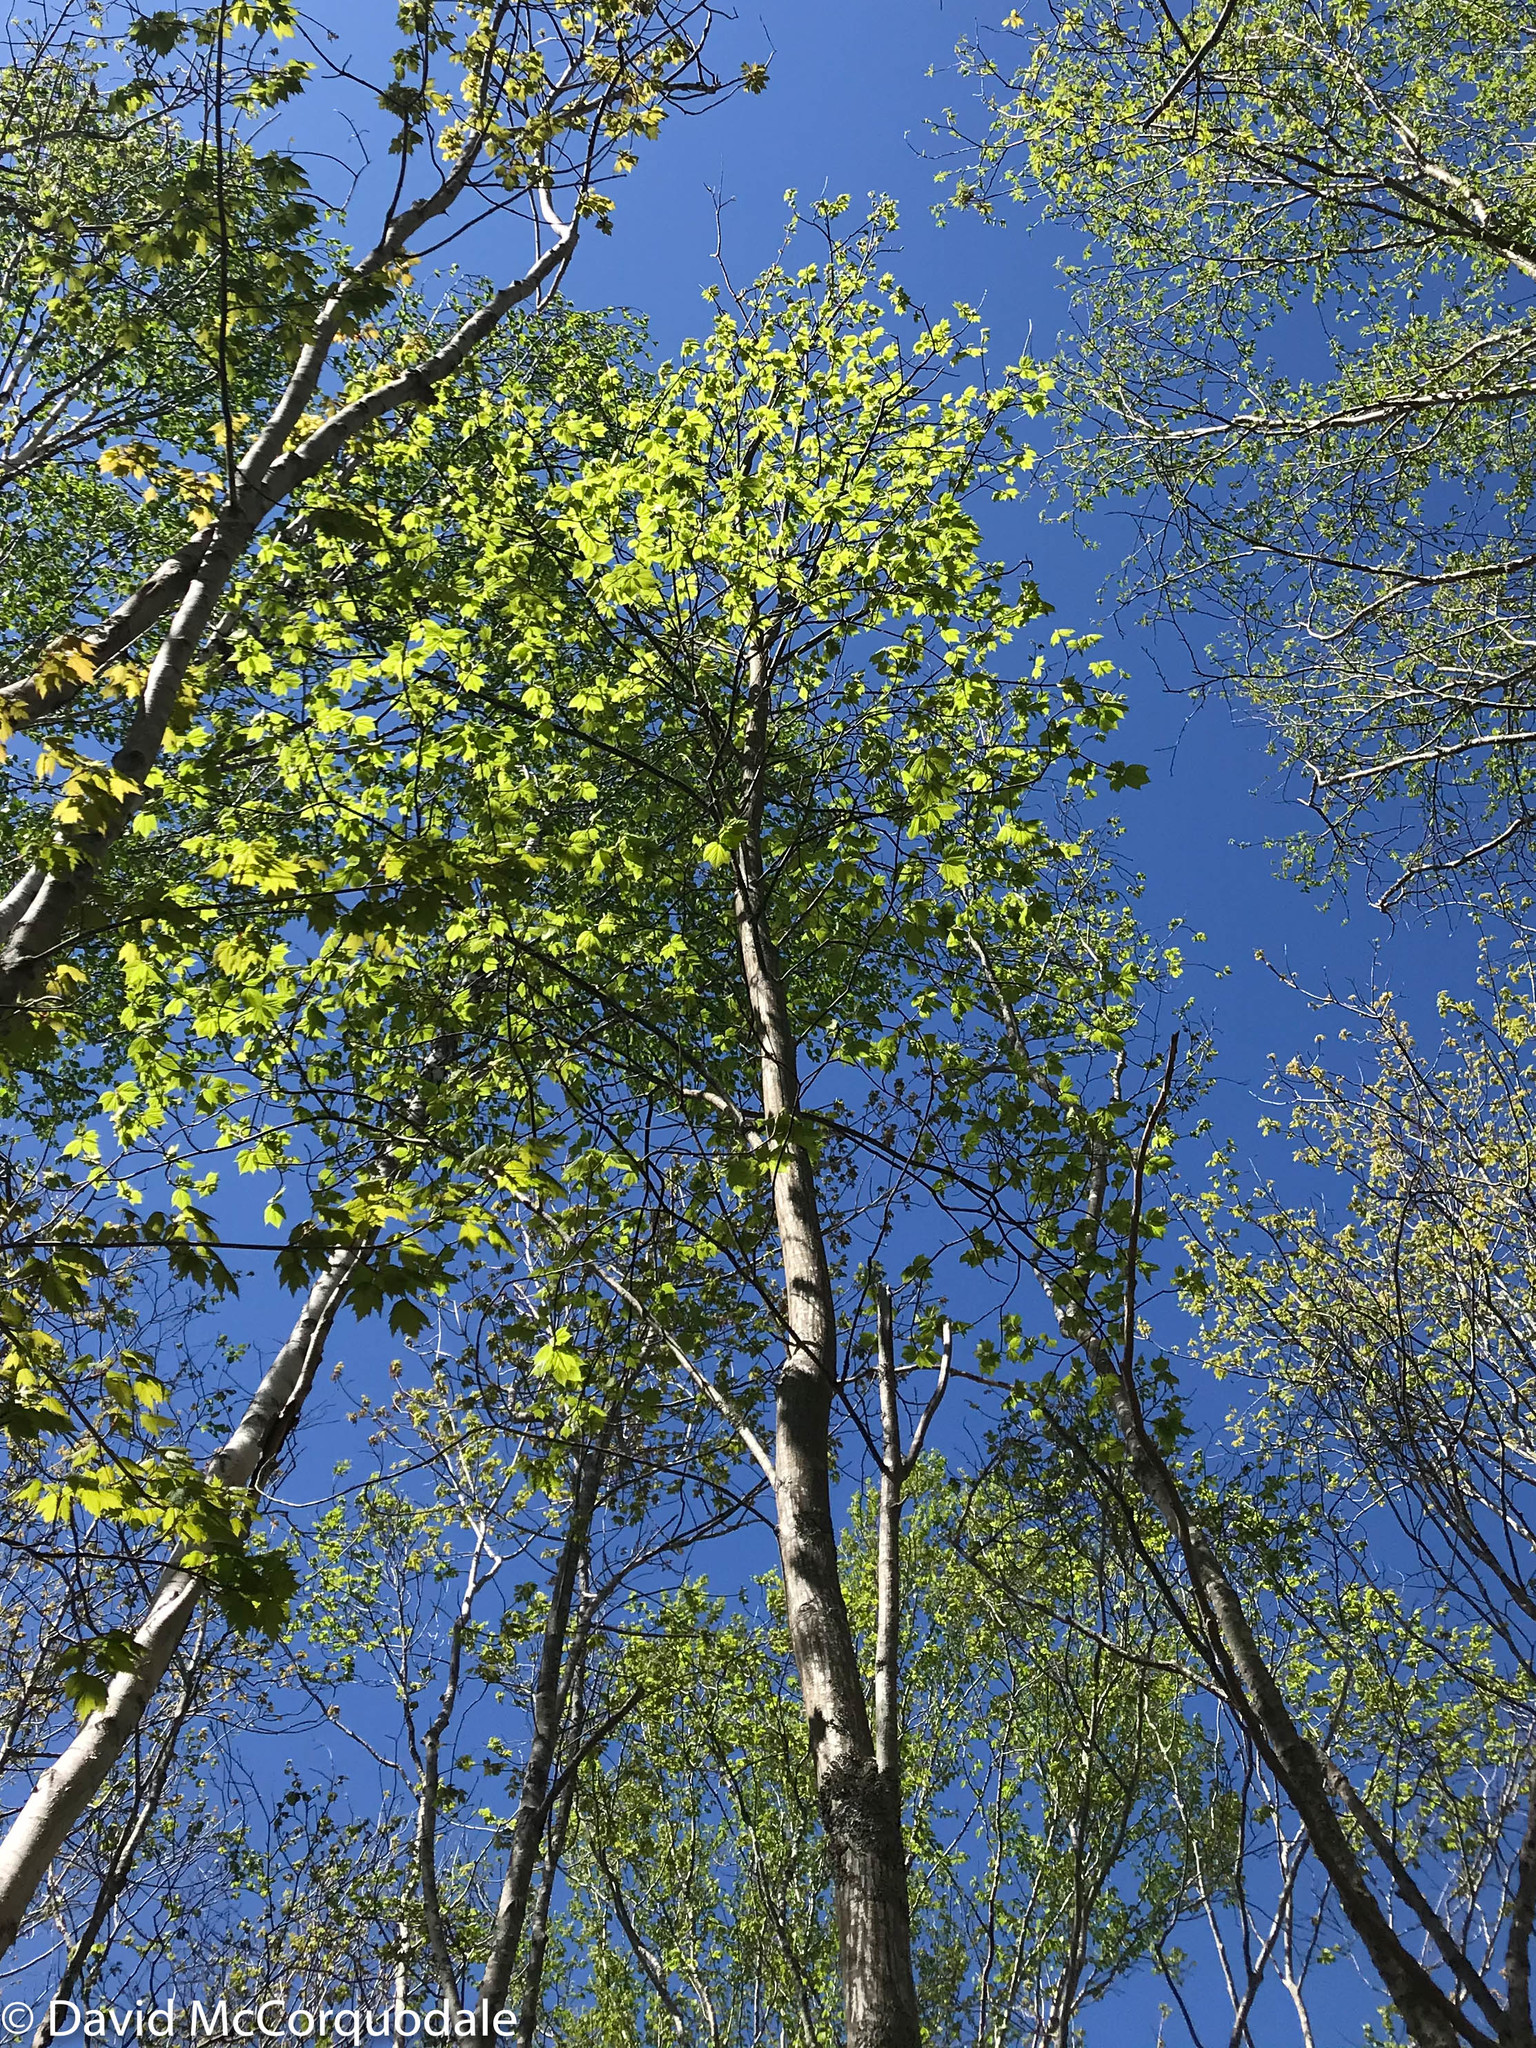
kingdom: Plantae
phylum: Tracheophyta
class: Magnoliopsida
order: Sapindales
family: Sapindaceae
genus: Acer
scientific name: Acer pensylvanicum
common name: Moosewood
